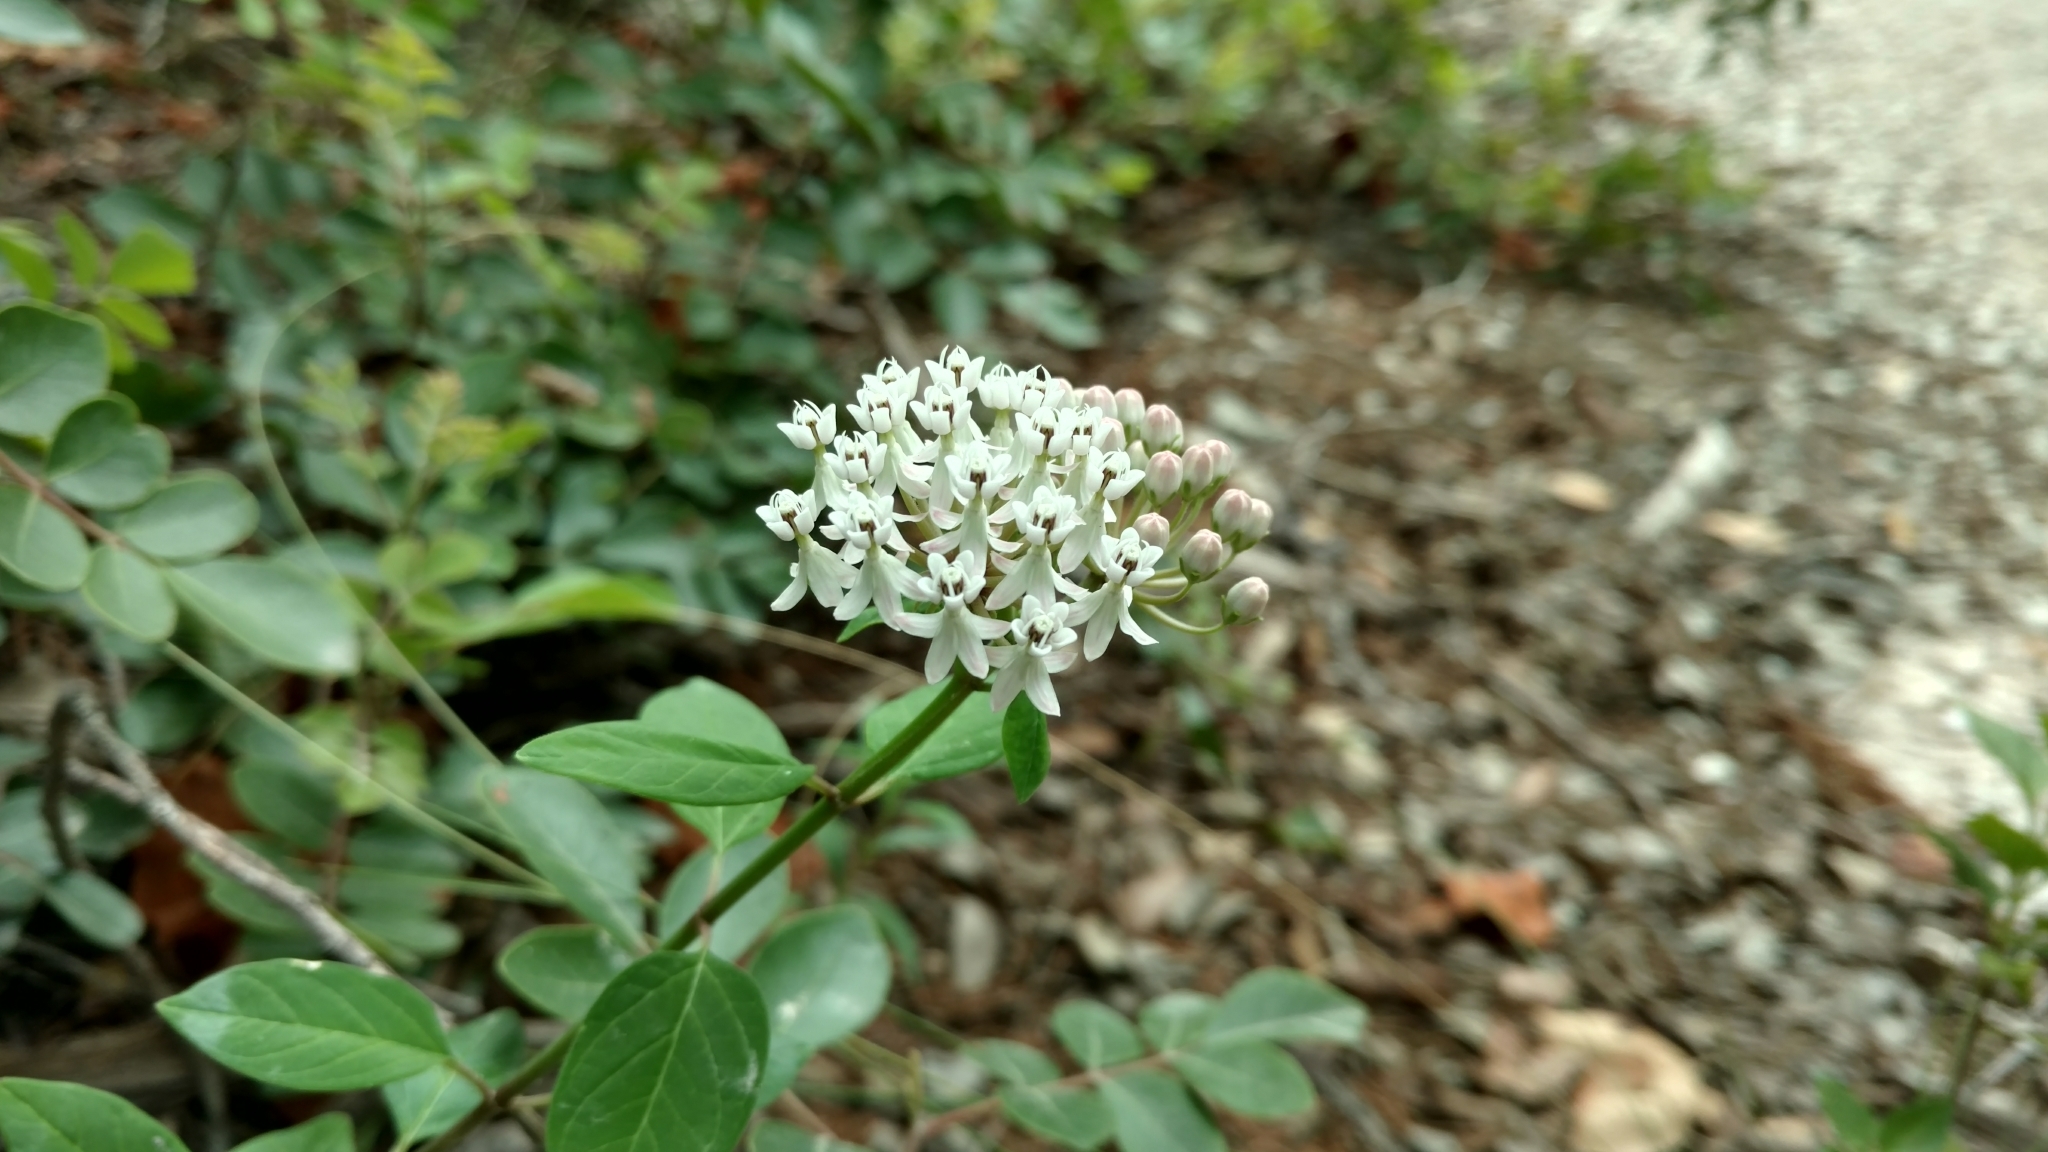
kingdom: Plantae
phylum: Tracheophyta
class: Magnoliopsida
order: Gentianales
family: Apocynaceae
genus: Asclepias
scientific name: Asclepias texana
